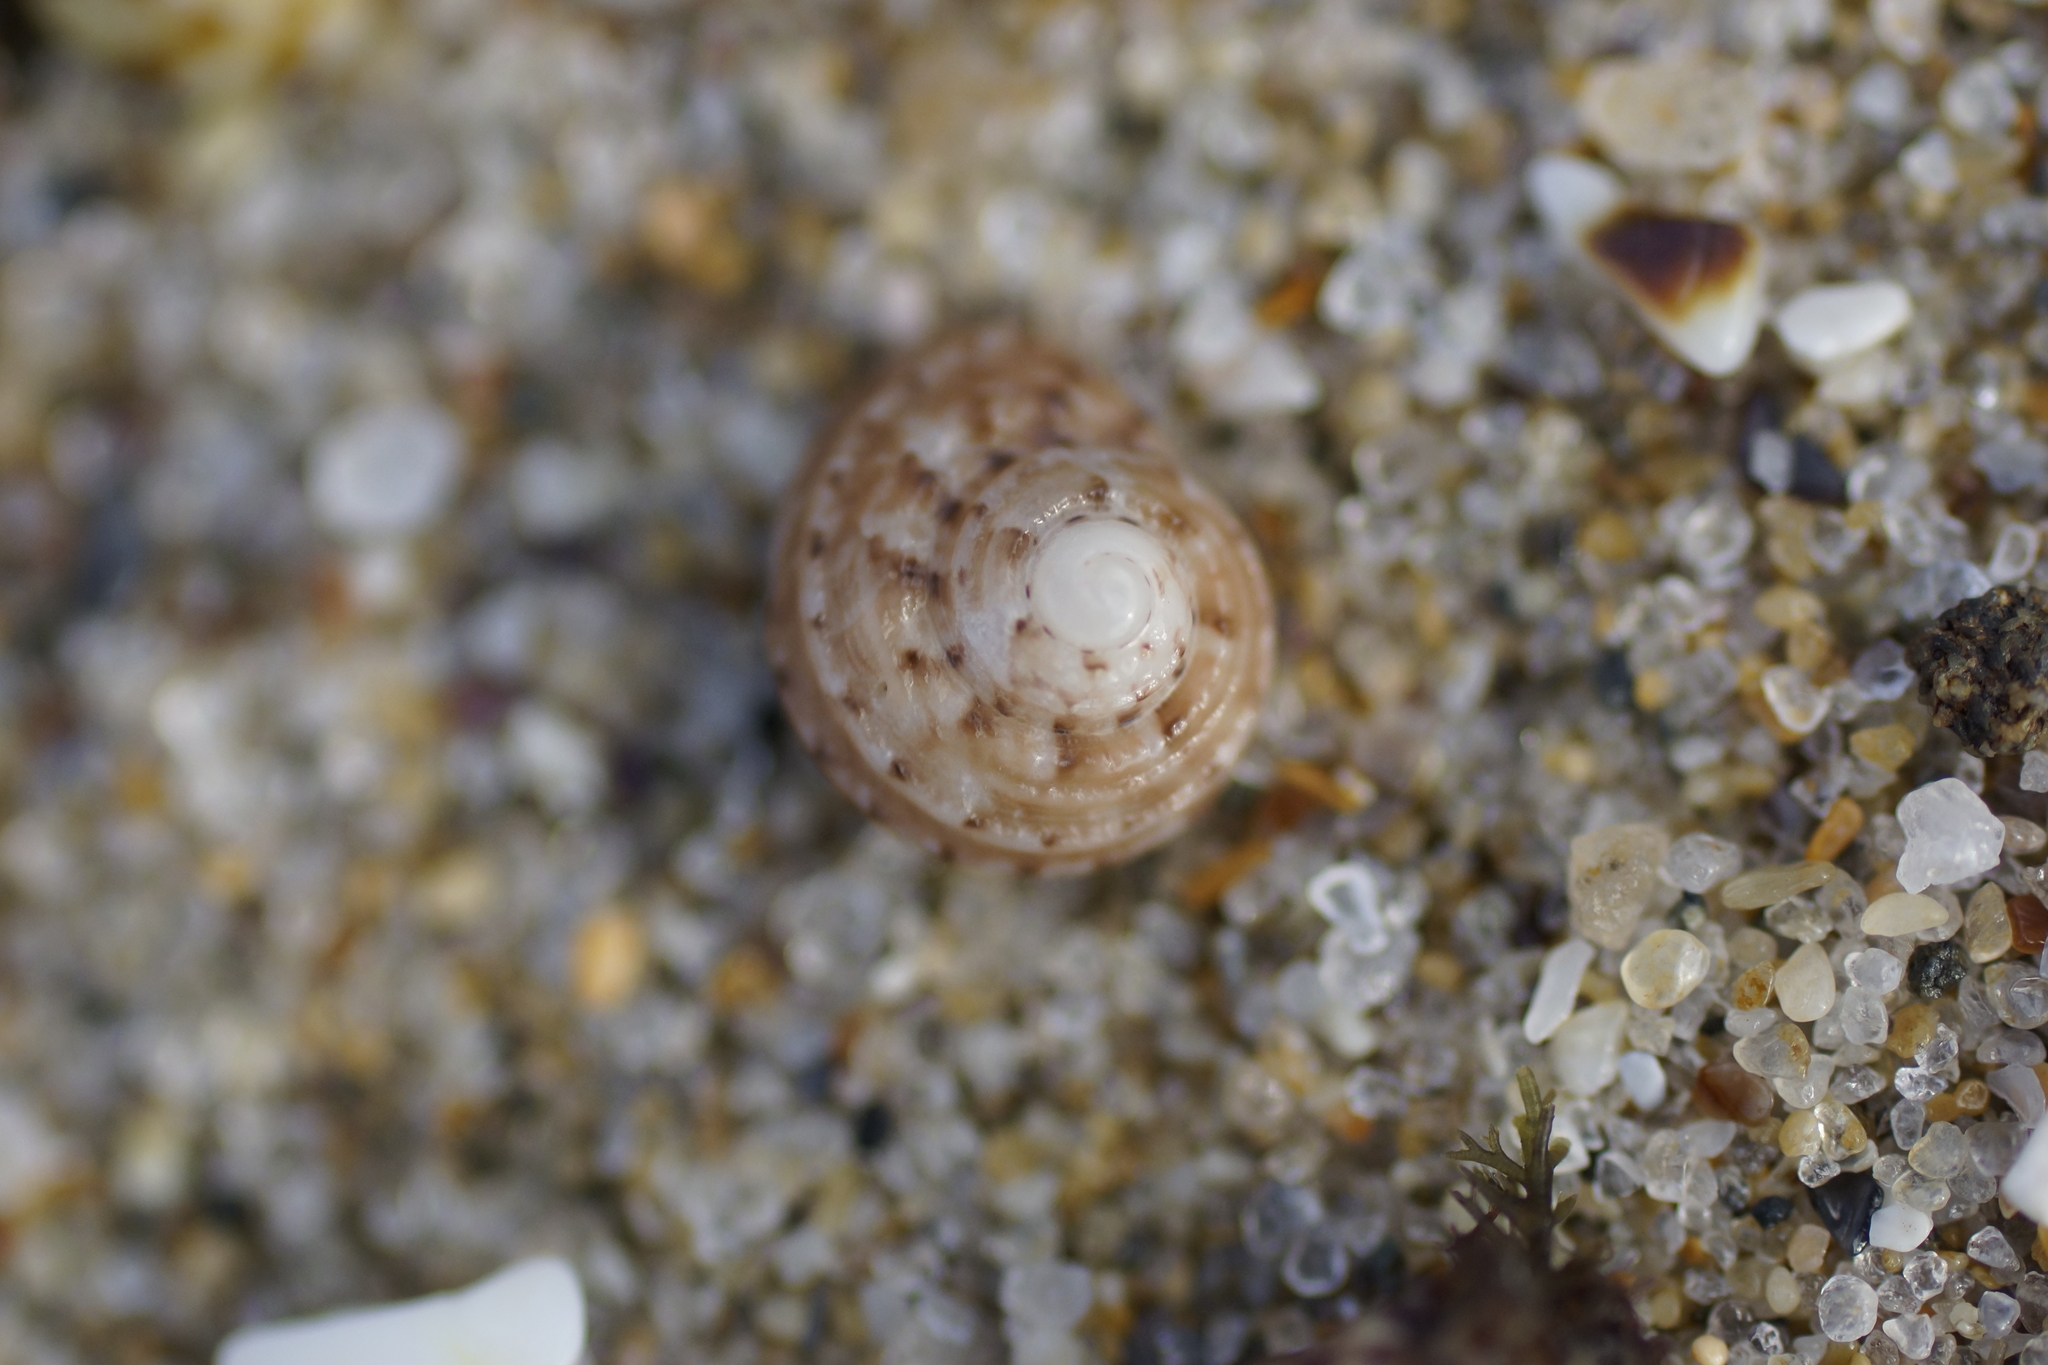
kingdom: Animalia
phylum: Mollusca
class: Gastropoda
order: Trochida
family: Trochidae
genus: Clanculus
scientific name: Clanculus plebejus
